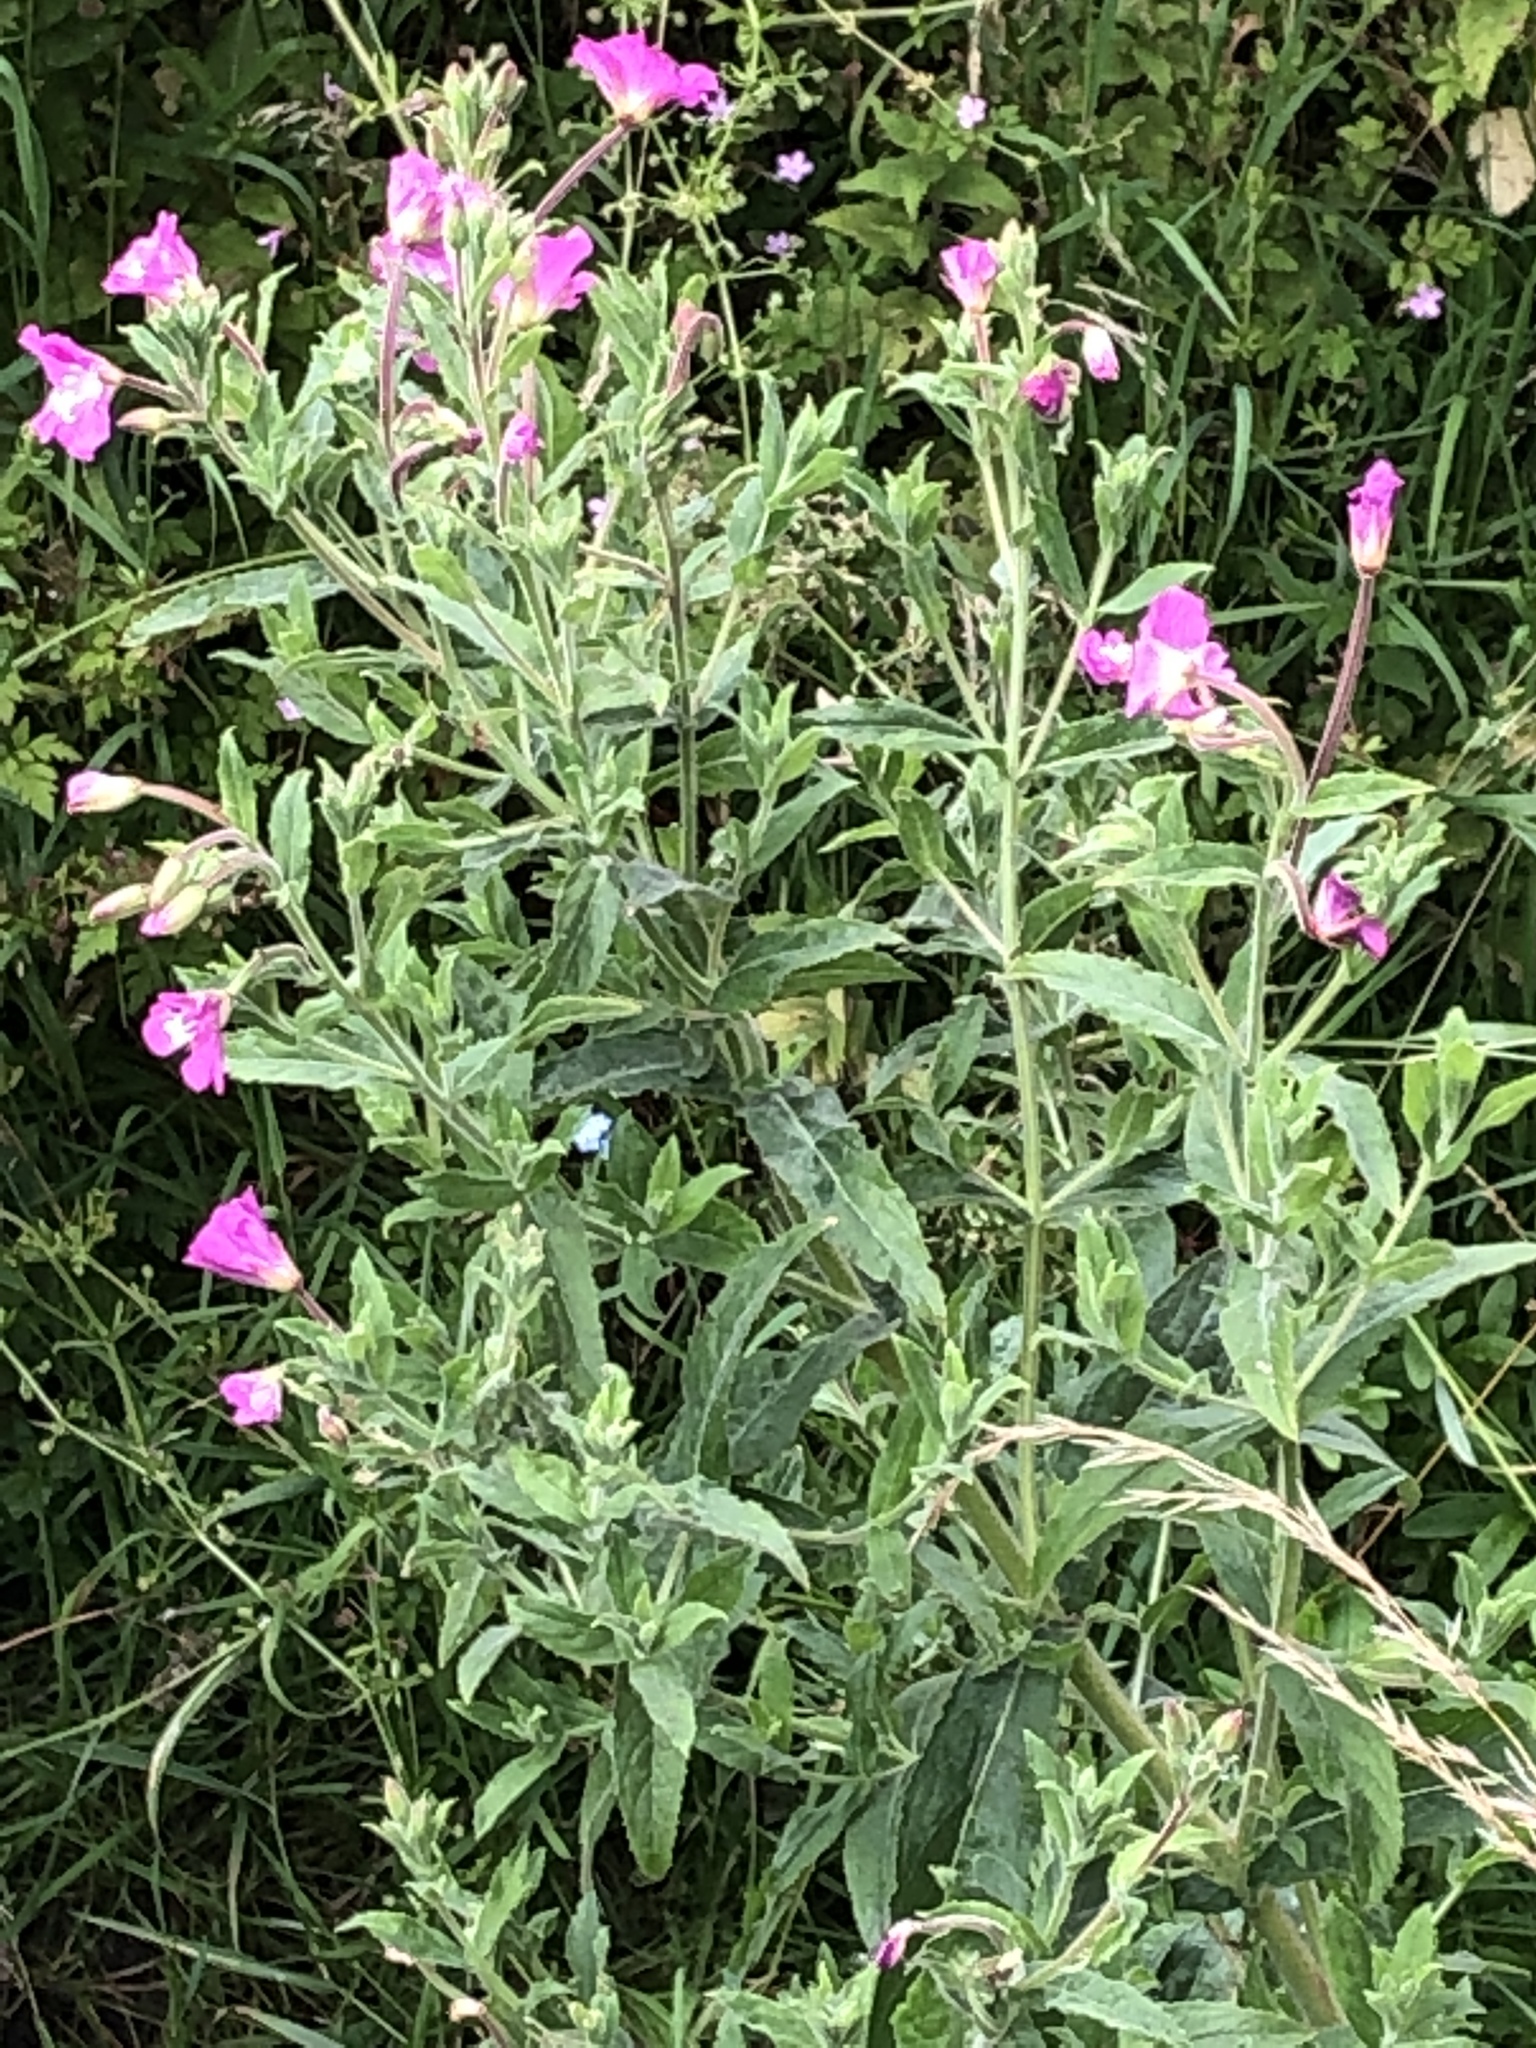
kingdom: Plantae
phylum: Tracheophyta
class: Magnoliopsida
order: Myrtales
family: Onagraceae
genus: Epilobium
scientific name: Epilobium hirsutum
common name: Great willowherb
